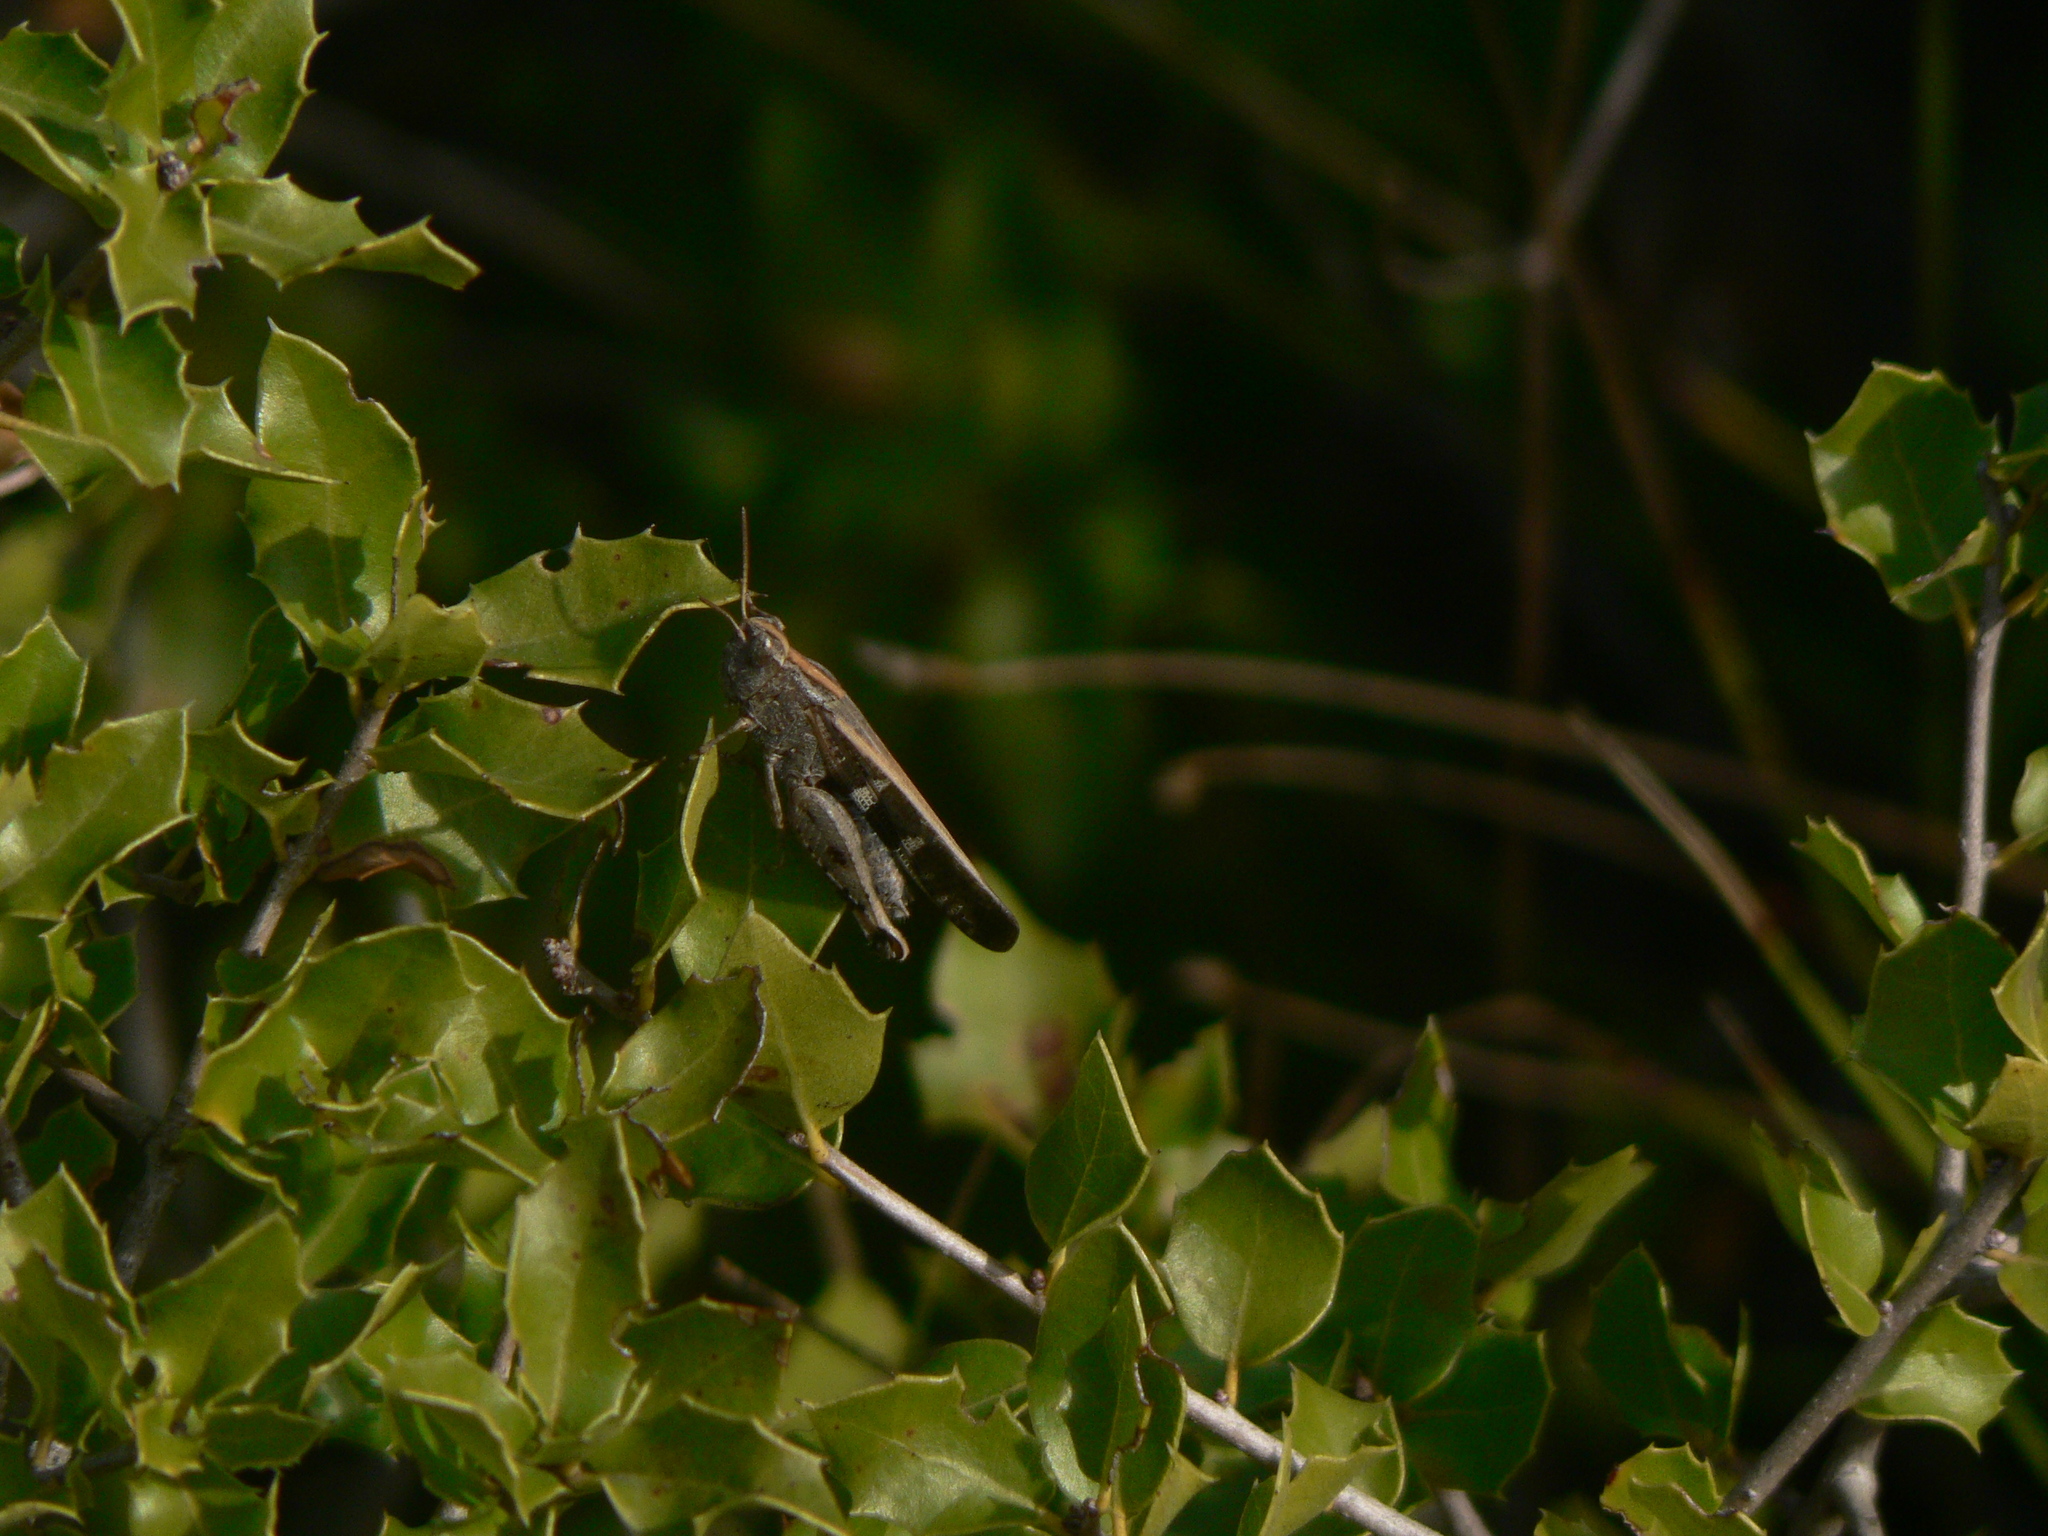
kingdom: Animalia
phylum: Arthropoda
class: Insecta
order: Orthoptera
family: Acrididae
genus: Aiolopus
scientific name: Aiolopus strepens
